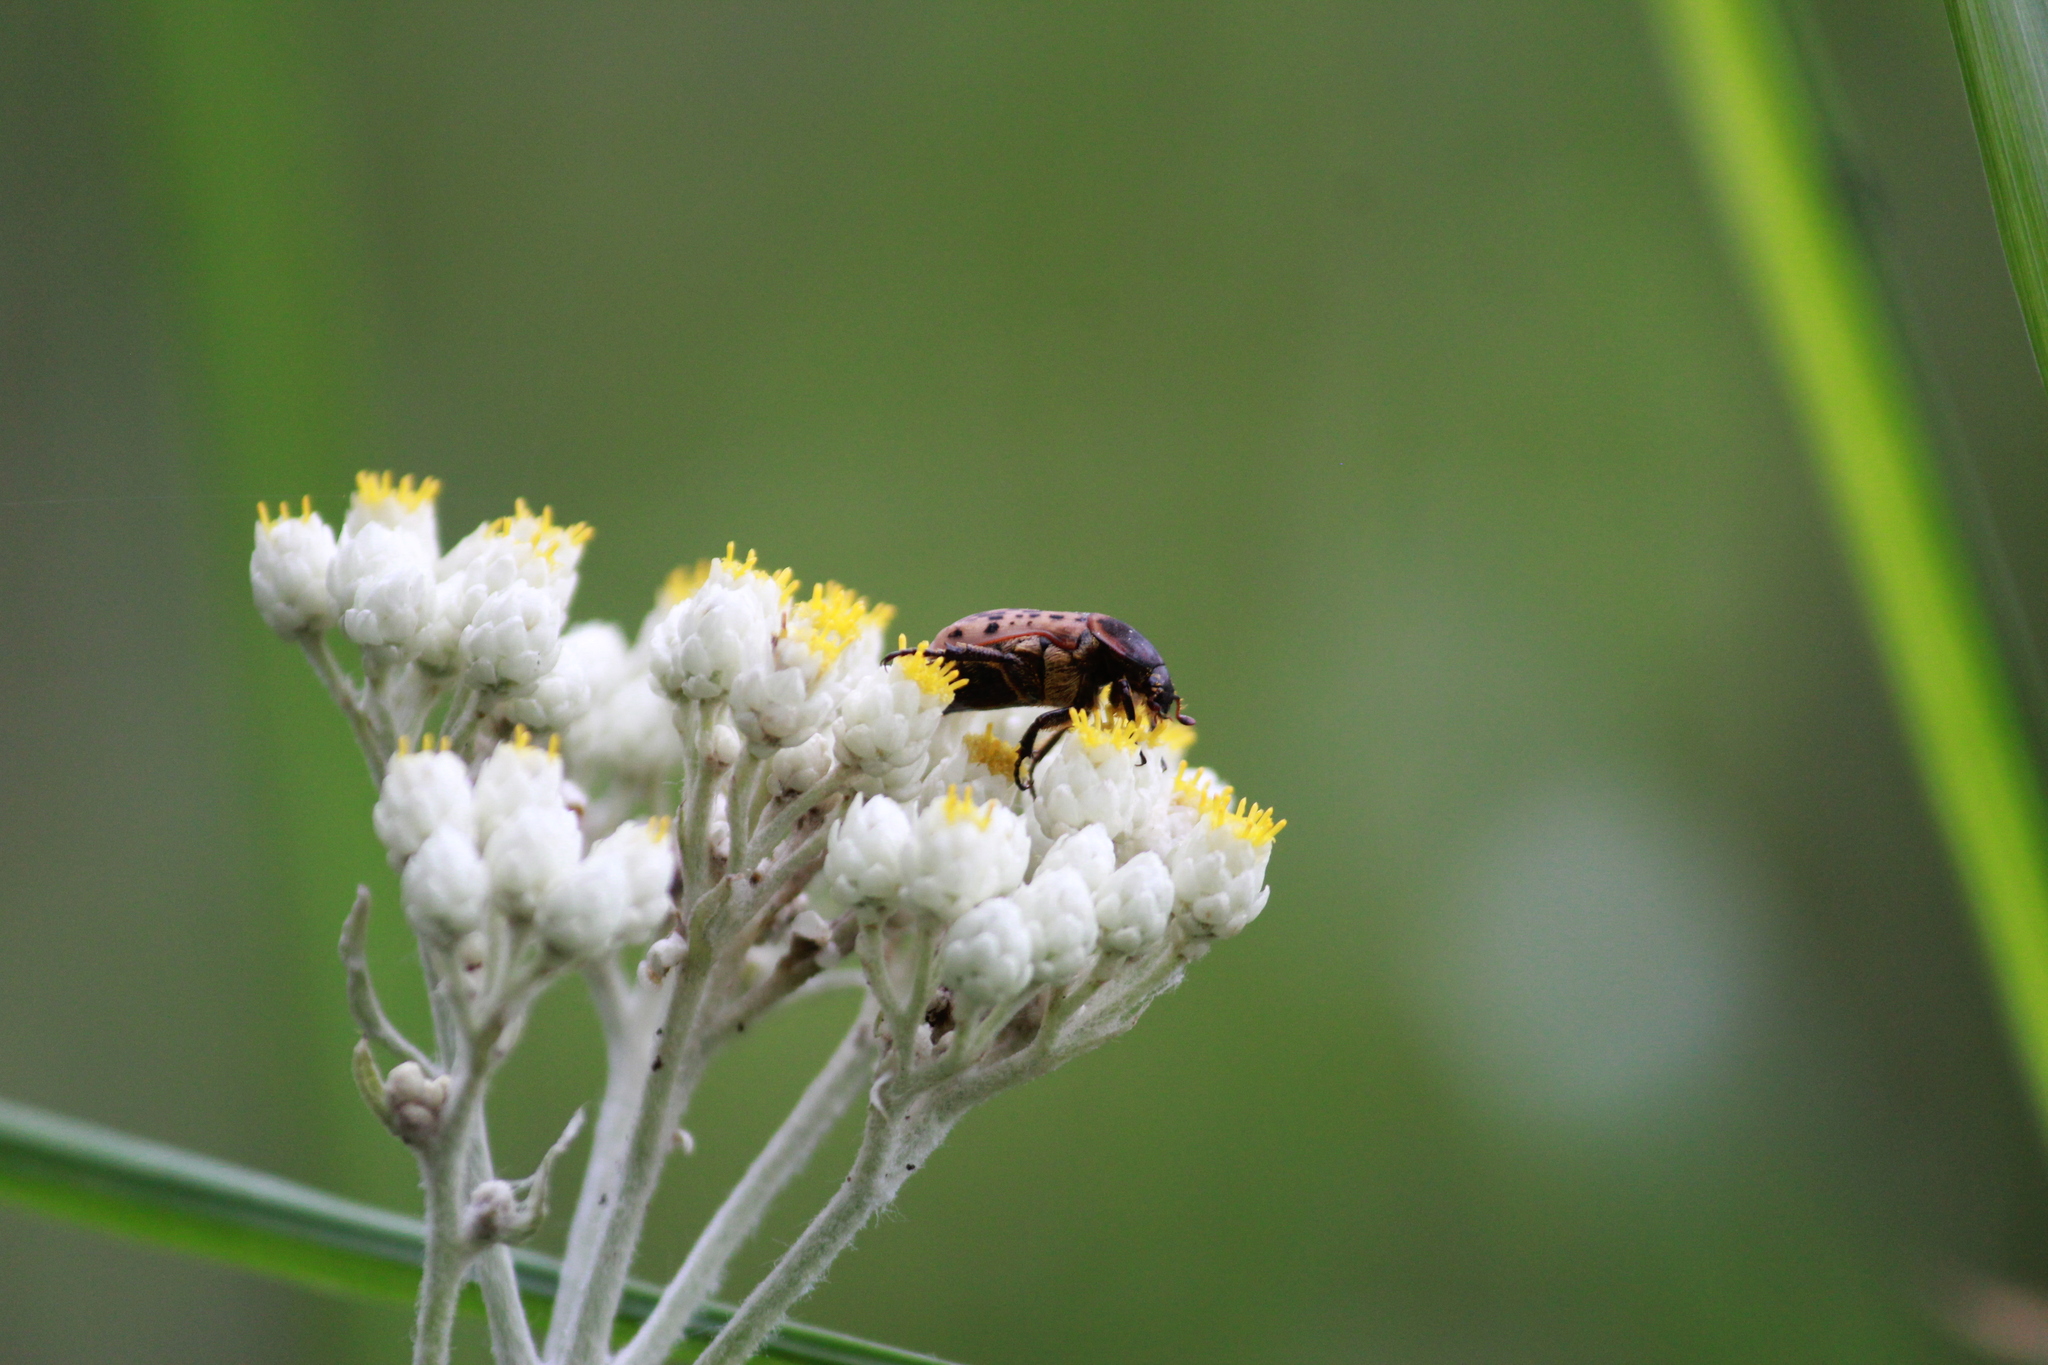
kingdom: Animalia
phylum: Arthropoda
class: Insecta
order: Coleoptera
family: Scarabaeidae
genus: Atrichelaphinis
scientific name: Atrichelaphinis tigrina
